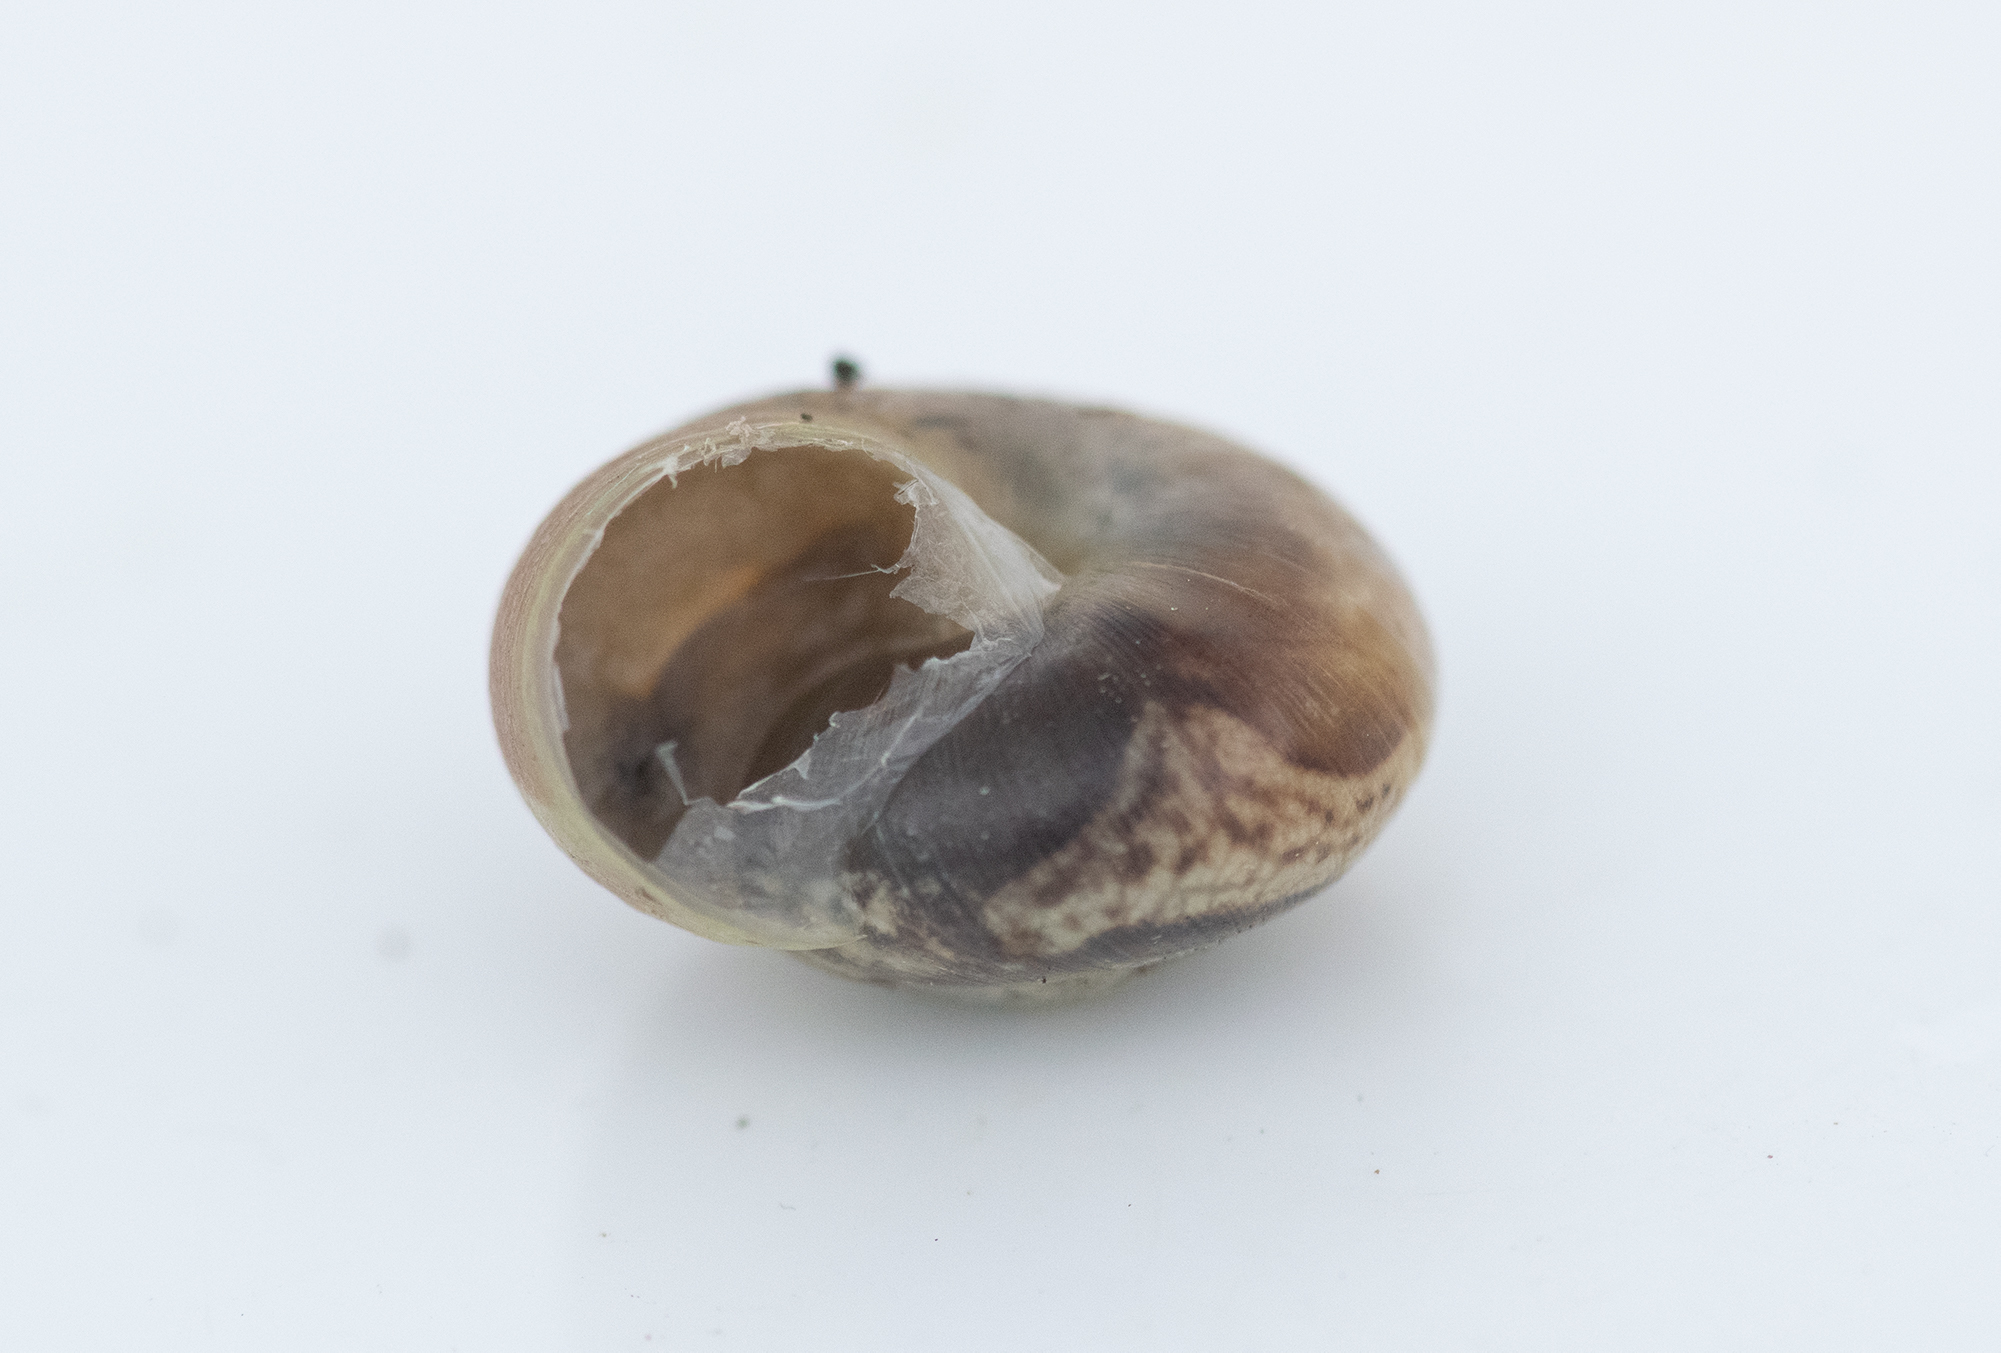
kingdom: Animalia
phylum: Mollusca
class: Gastropoda
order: Stylommatophora
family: Hygromiidae
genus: Monacha
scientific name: Monacha cantiana
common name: Kentish snail
